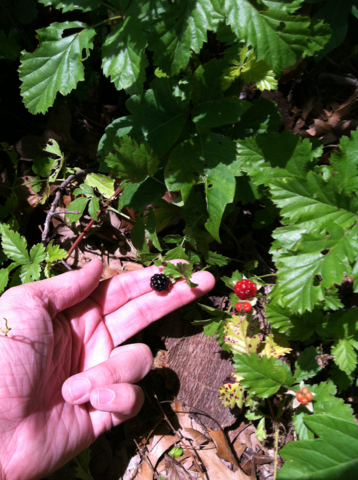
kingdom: Plantae
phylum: Tracheophyta
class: Magnoliopsida
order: Rosales
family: Rosaceae
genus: Rubus
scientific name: Rubus trivialis
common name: Southern dewberry
